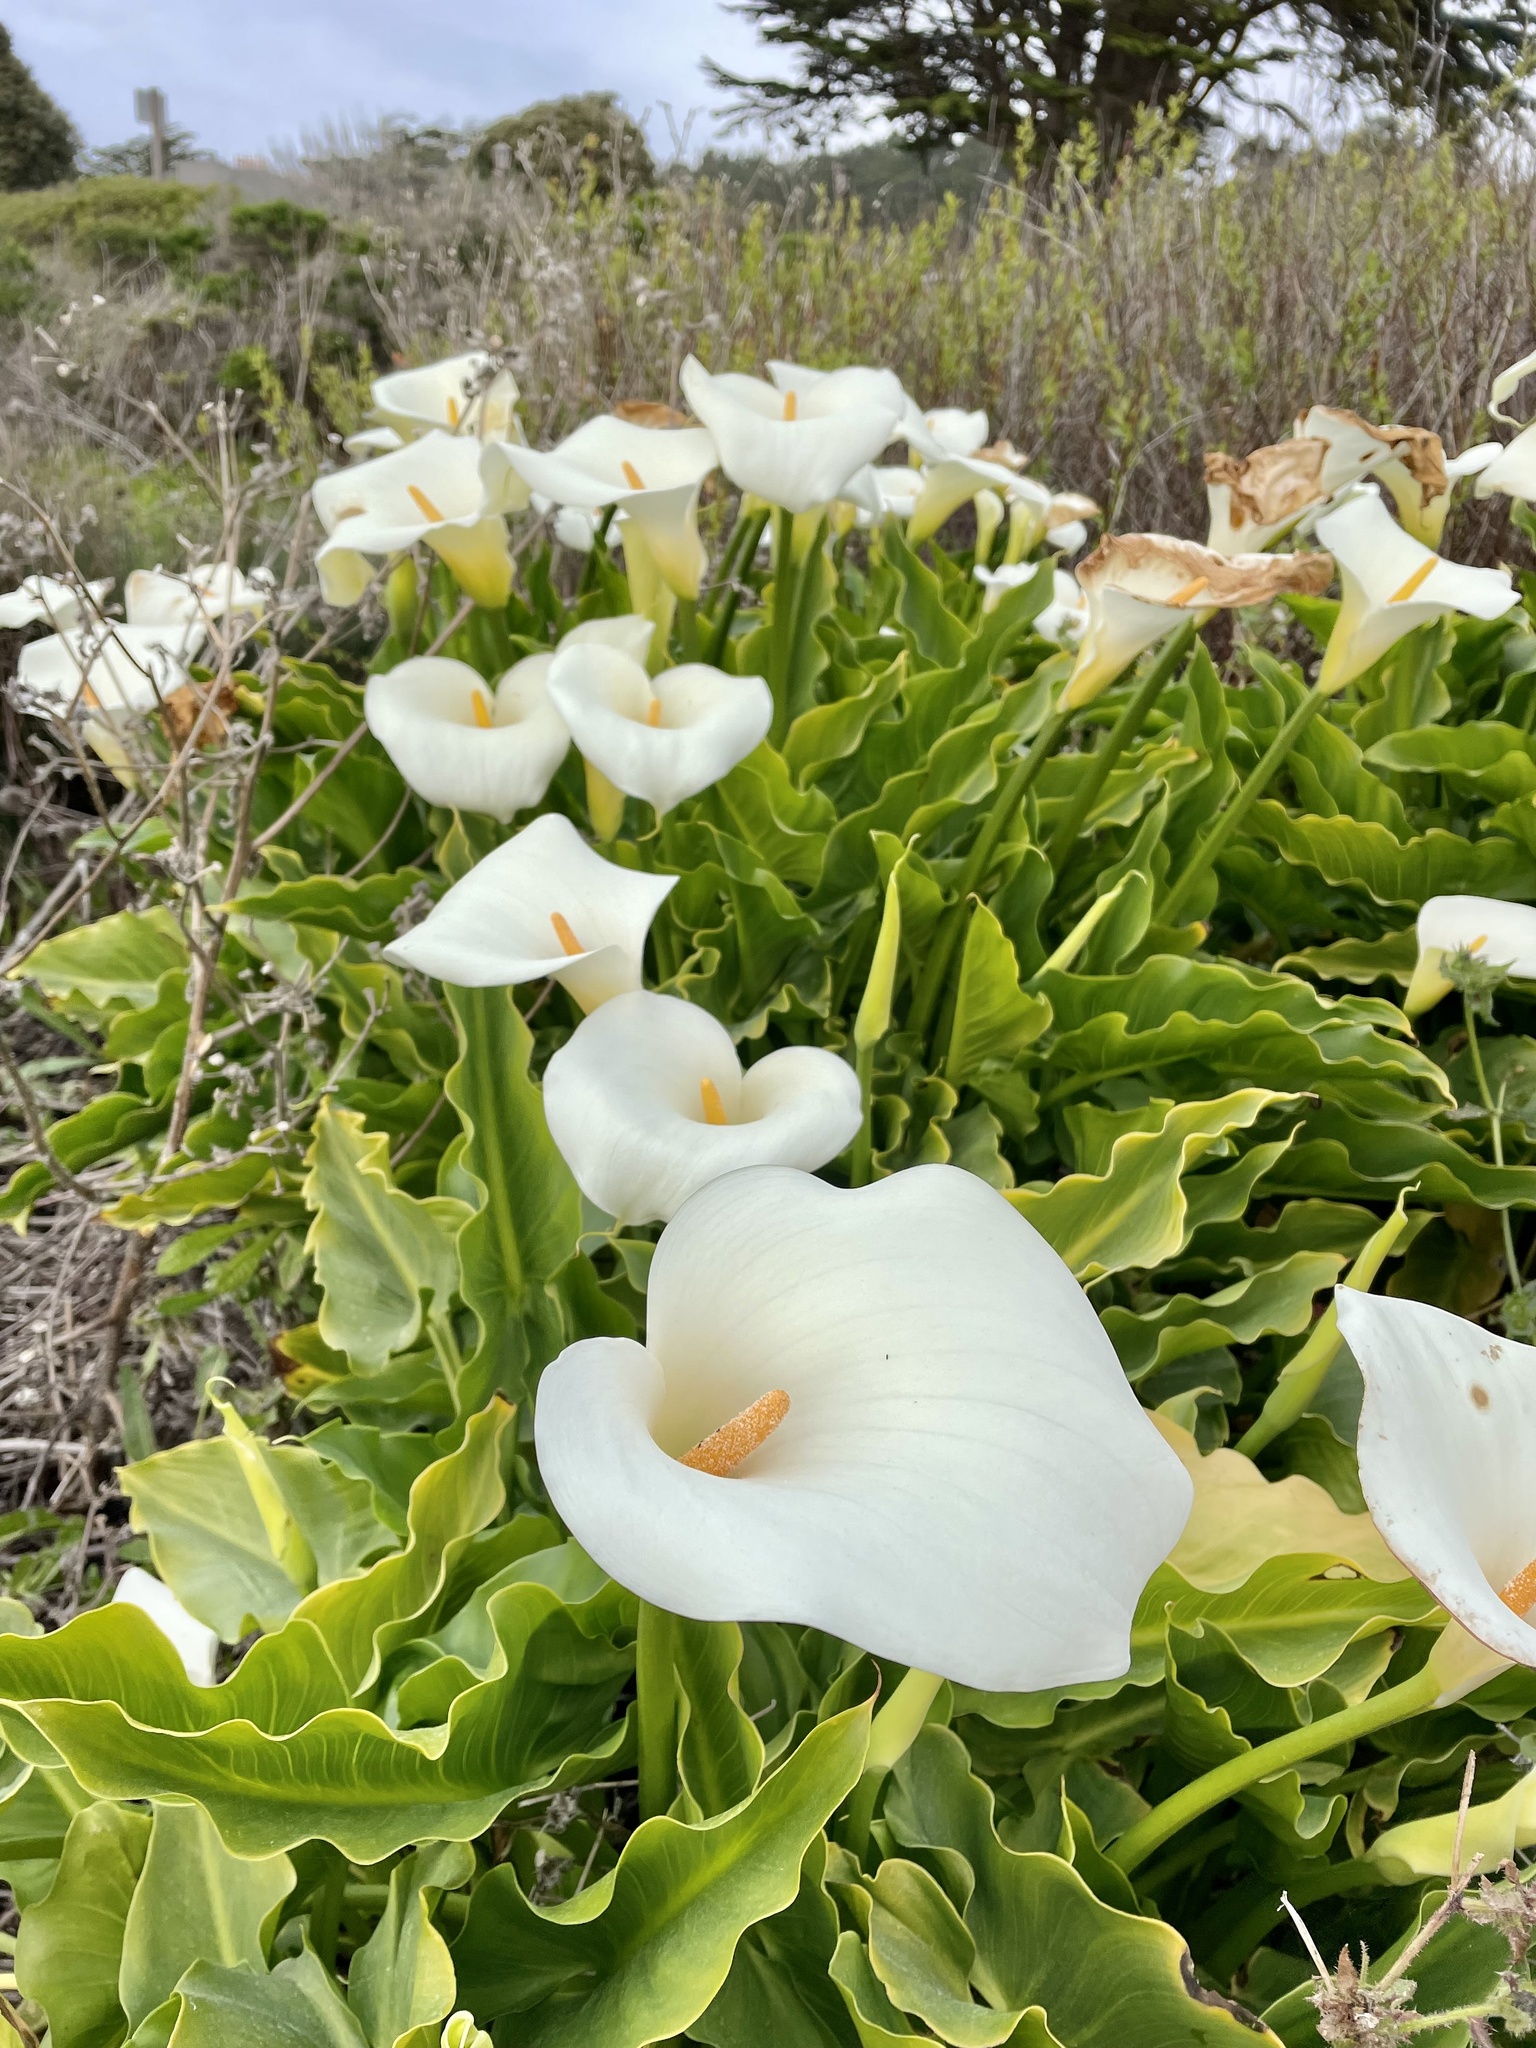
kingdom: Plantae
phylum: Tracheophyta
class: Liliopsida
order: Alismatales
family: Araceae
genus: Zantedeschia
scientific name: Zantedeschia aethiopica
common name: Altar-lily
